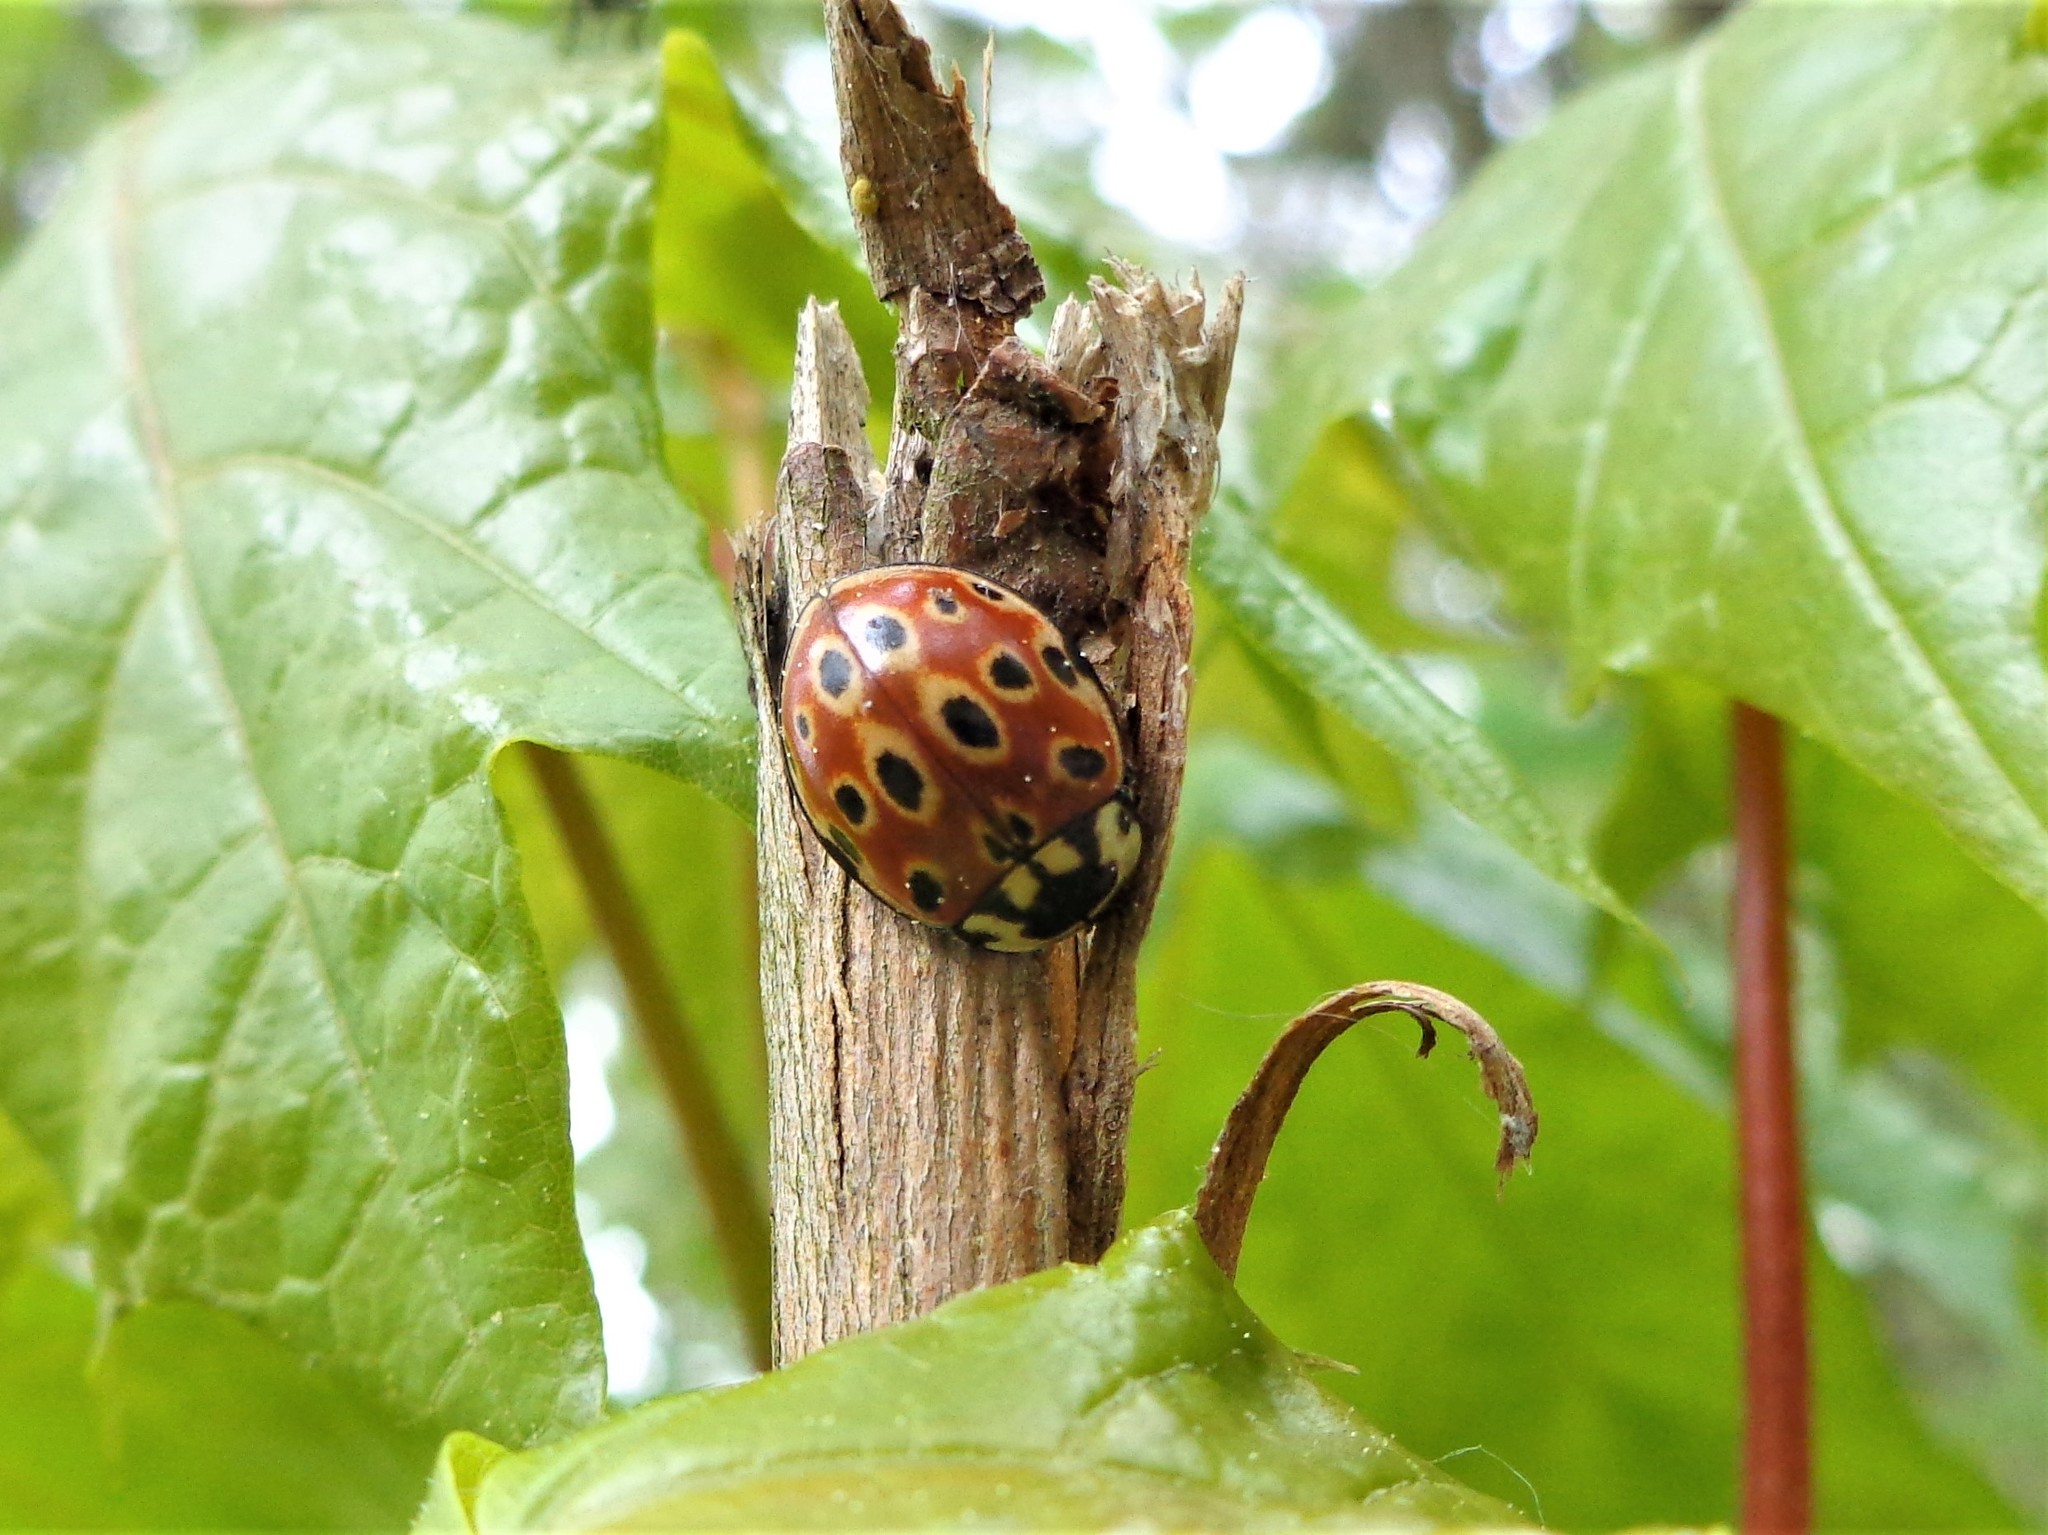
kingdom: Animalia
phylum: Arthropoda
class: Insecta
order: Coleoptera
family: Coccinellidae
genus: Anatis
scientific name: Anatis ocellata
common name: Eyed ladybird
